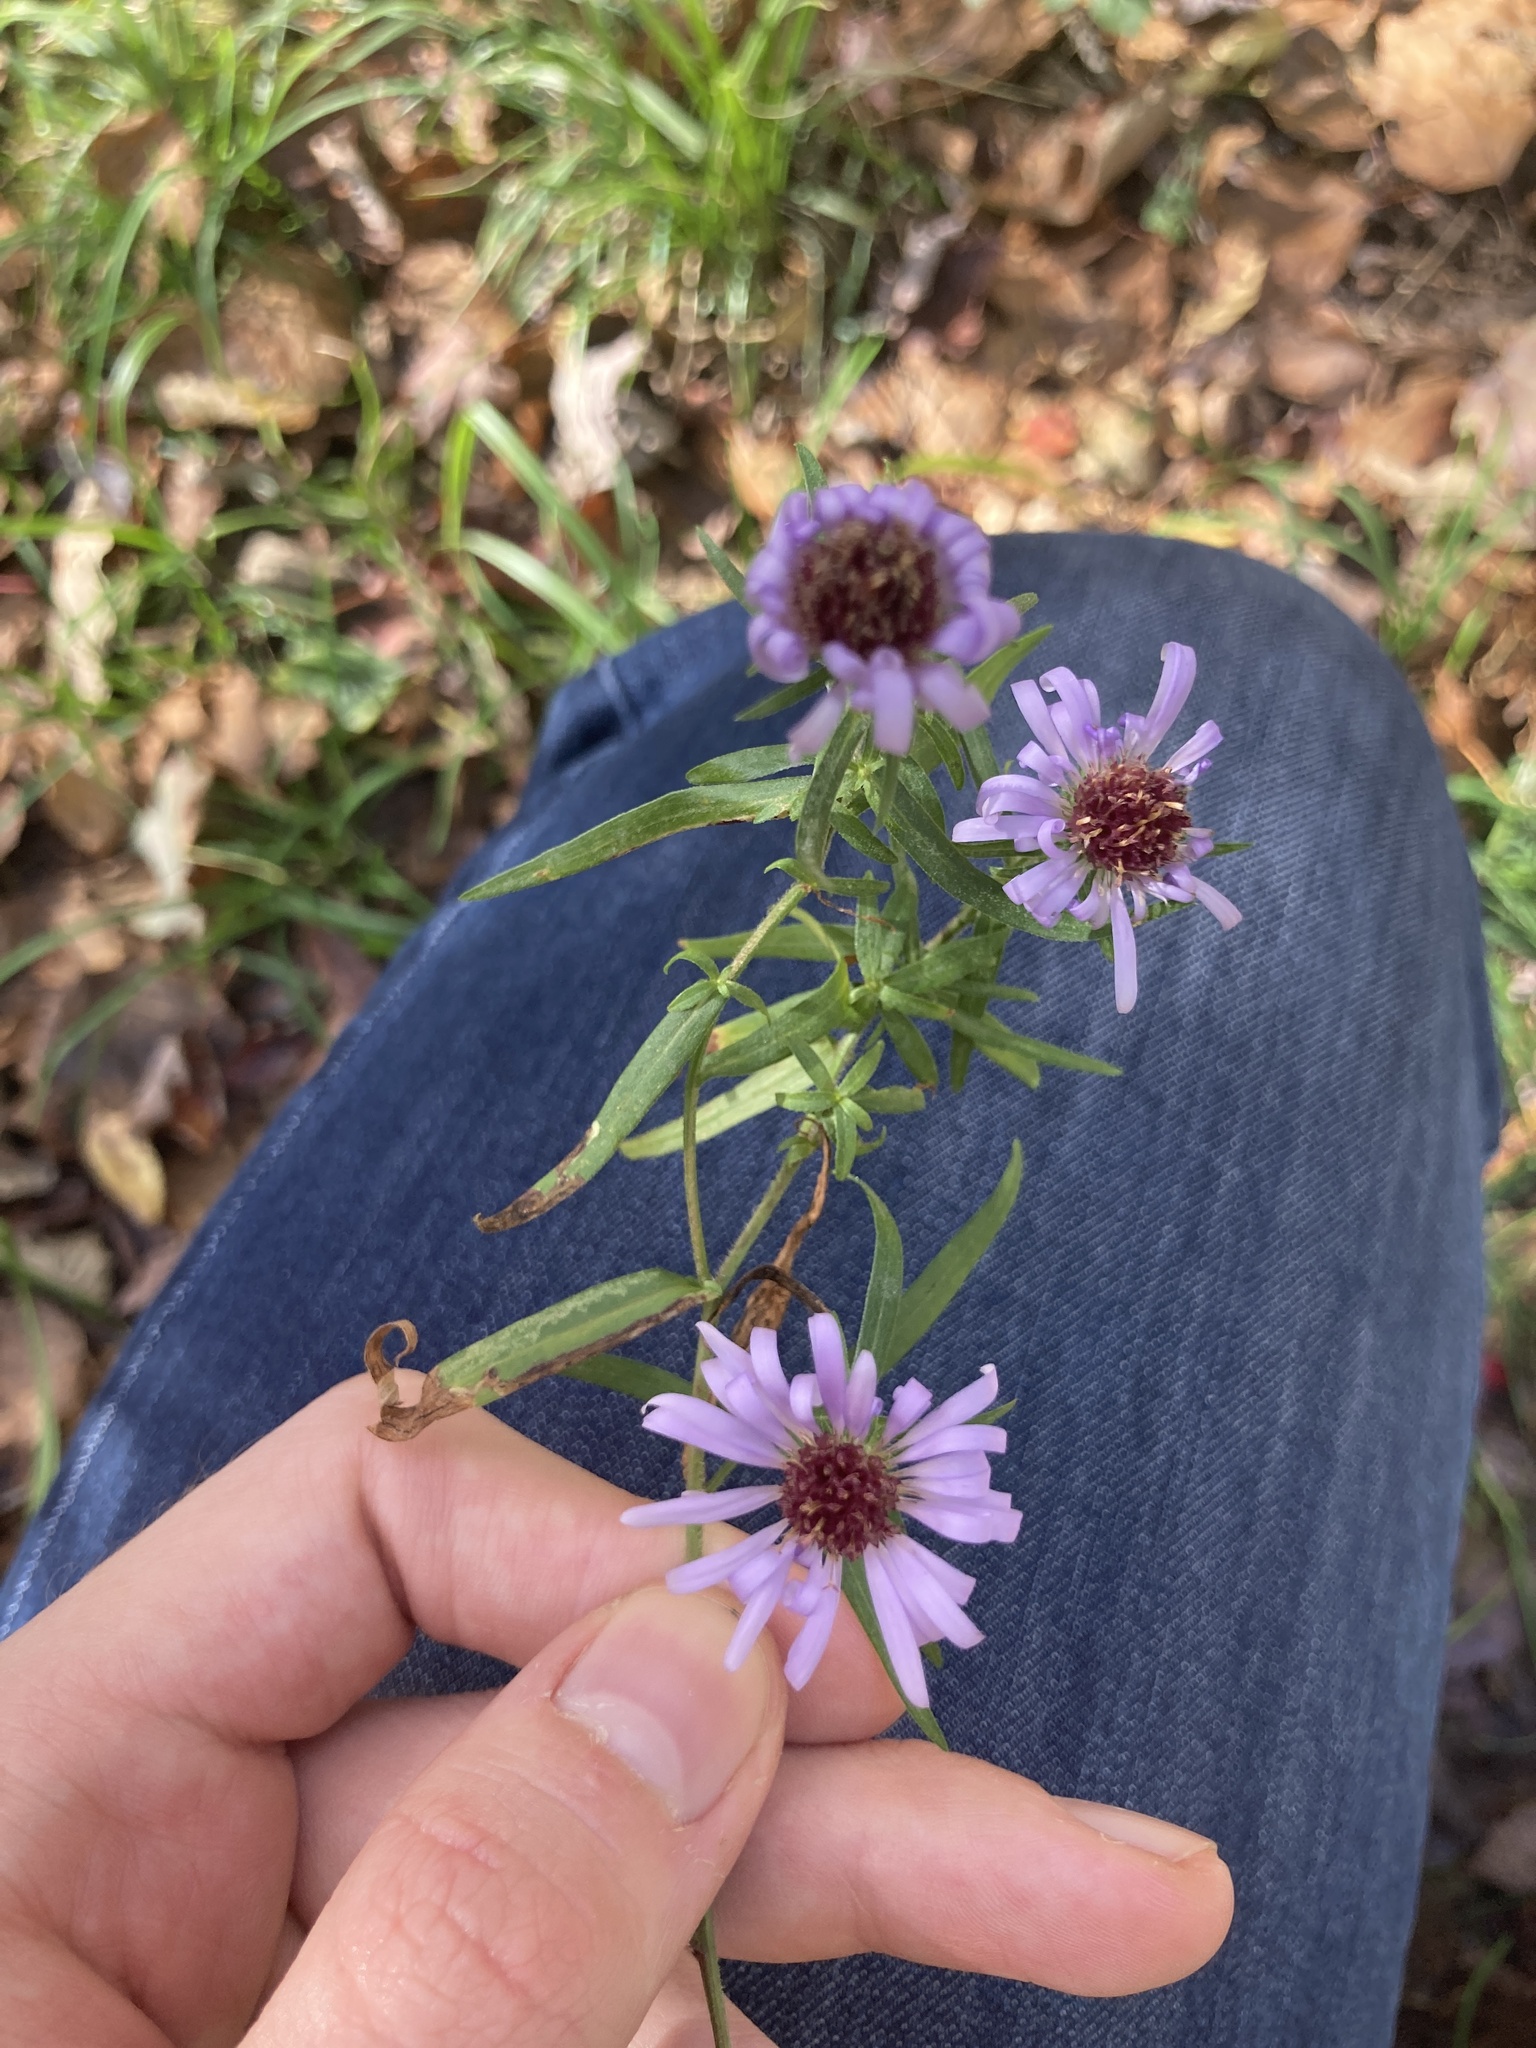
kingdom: Plantae
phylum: Tracheophyta
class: Magnoliopsida
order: Asterales
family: Asteraceae
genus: Symphyotrichum
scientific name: Symphyotrichum novi-belgii
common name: Michaelmas daisy
